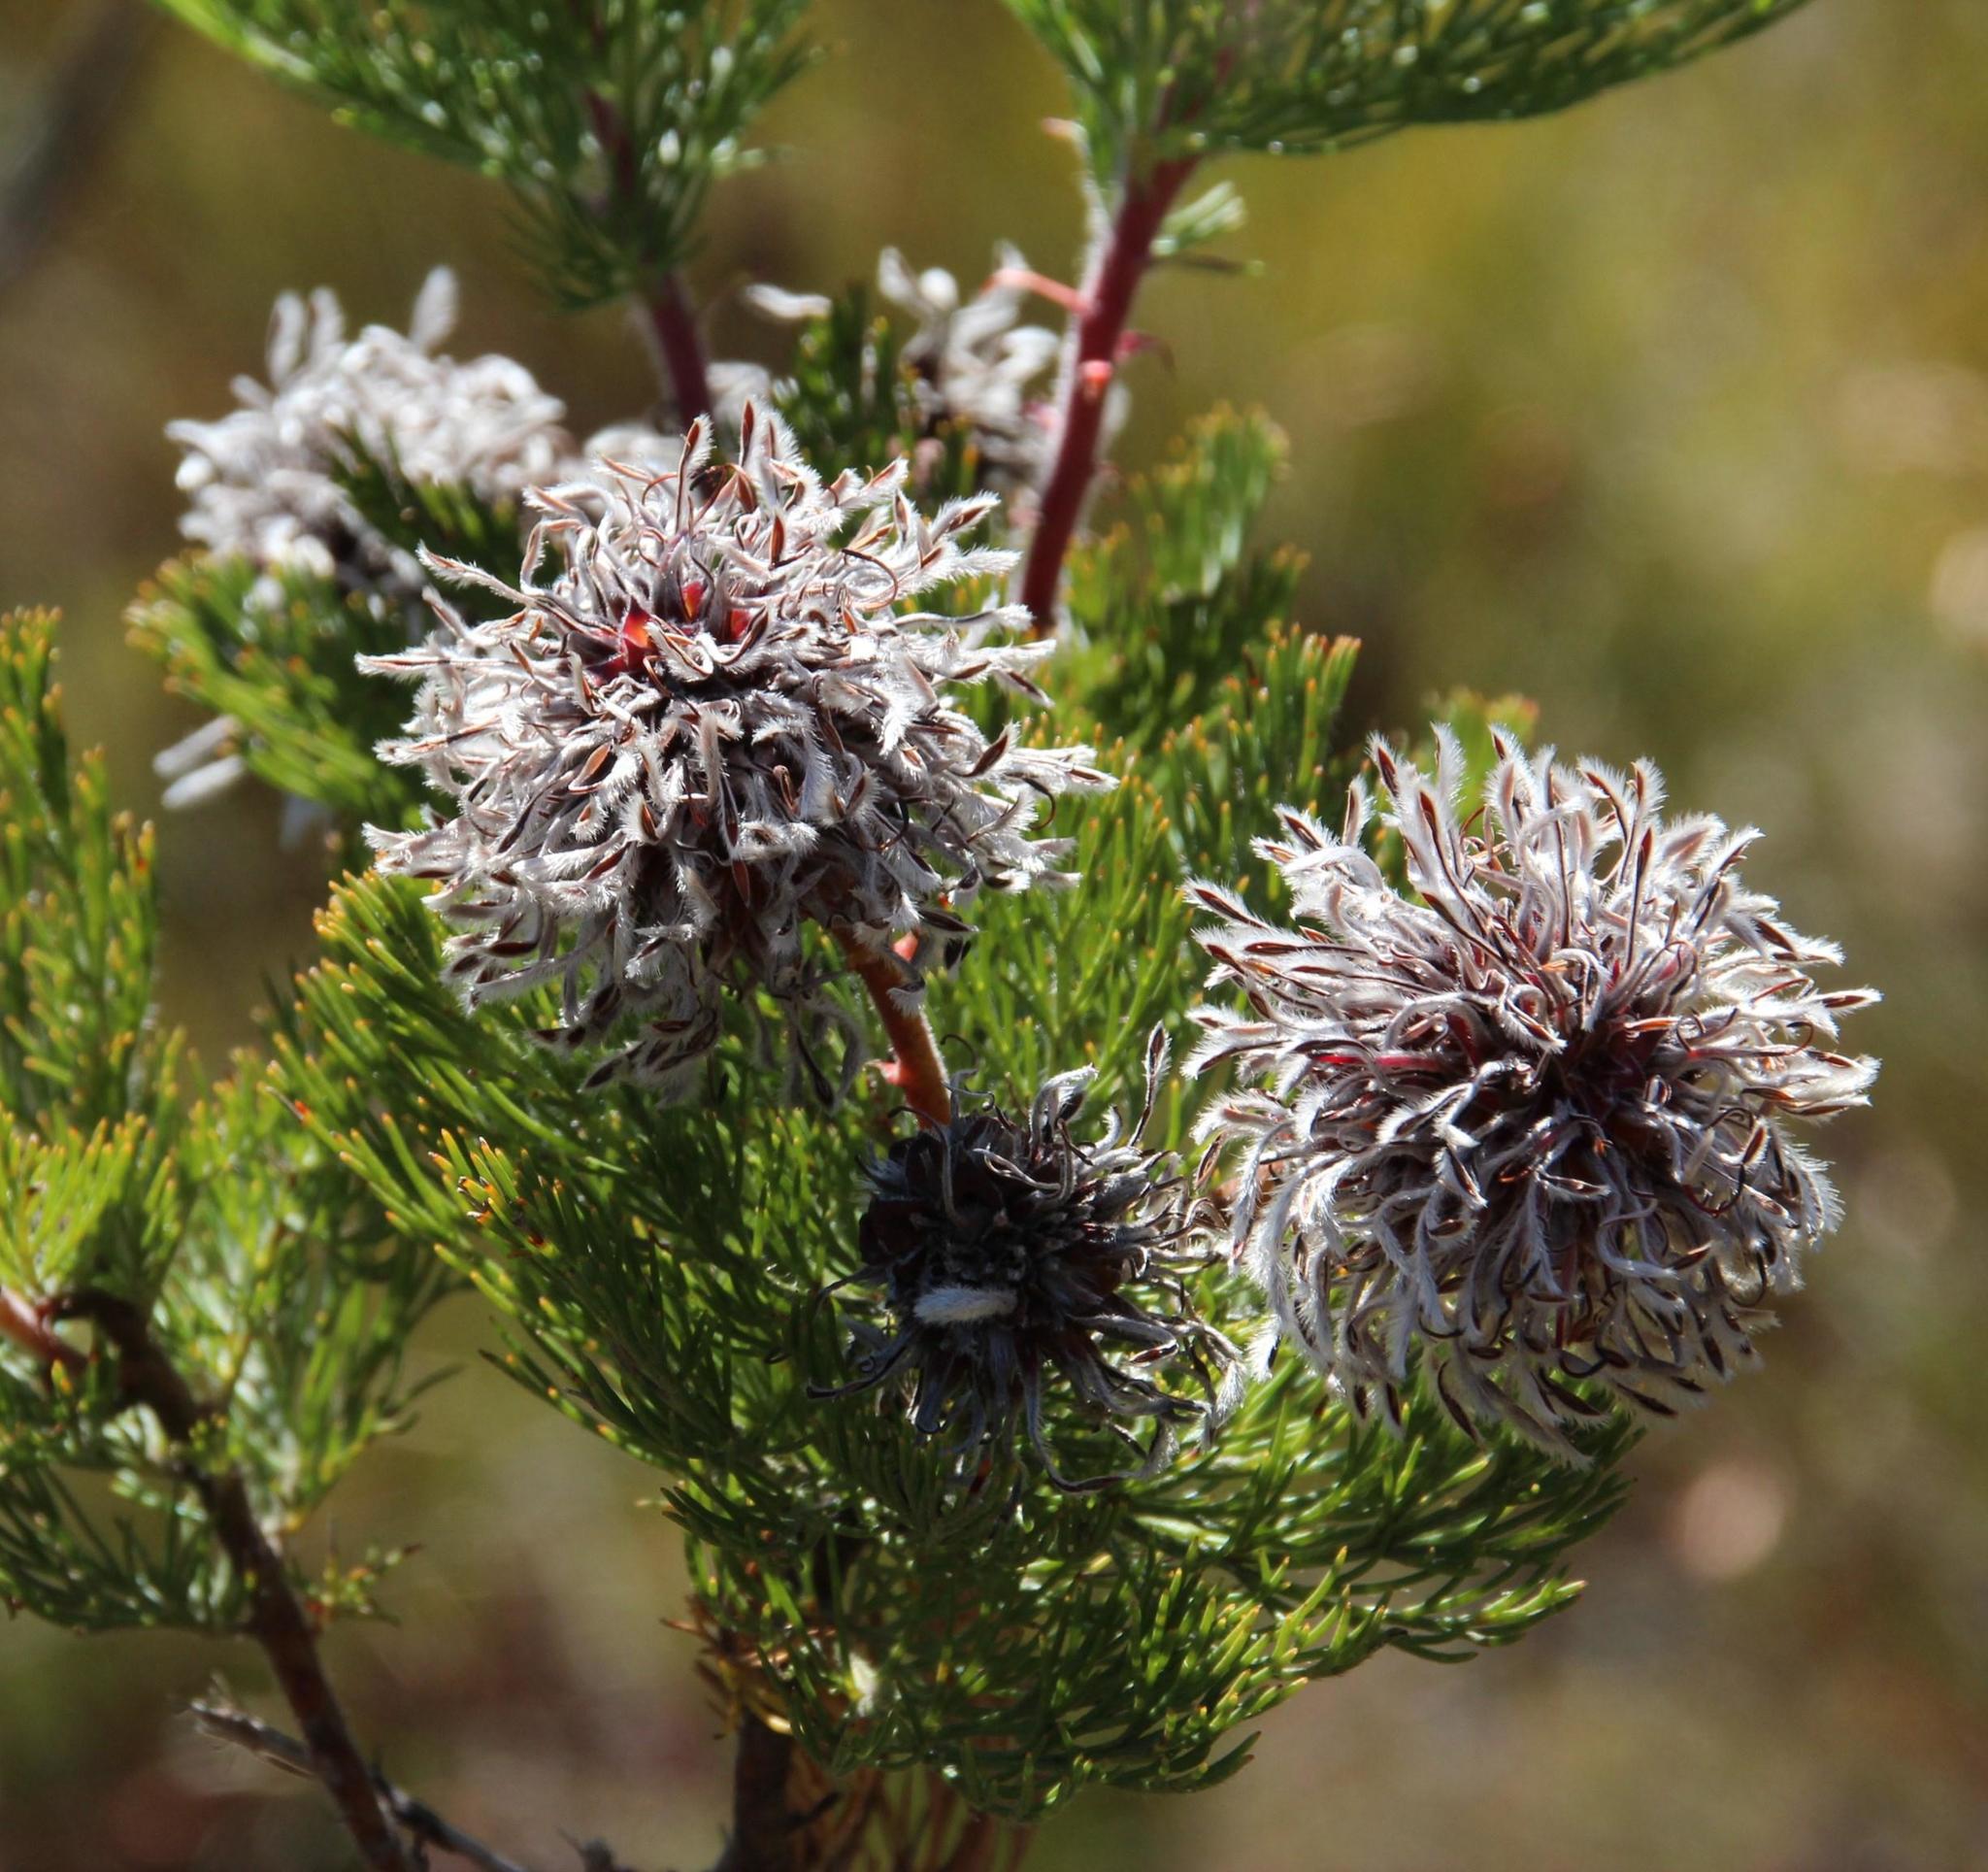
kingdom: Plantae
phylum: Tracheophyta
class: Magnoliopsida
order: Proteales
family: Proteaceae
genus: Serruria
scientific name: Serruria acrocarpa
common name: Common rootstock spiderhead
